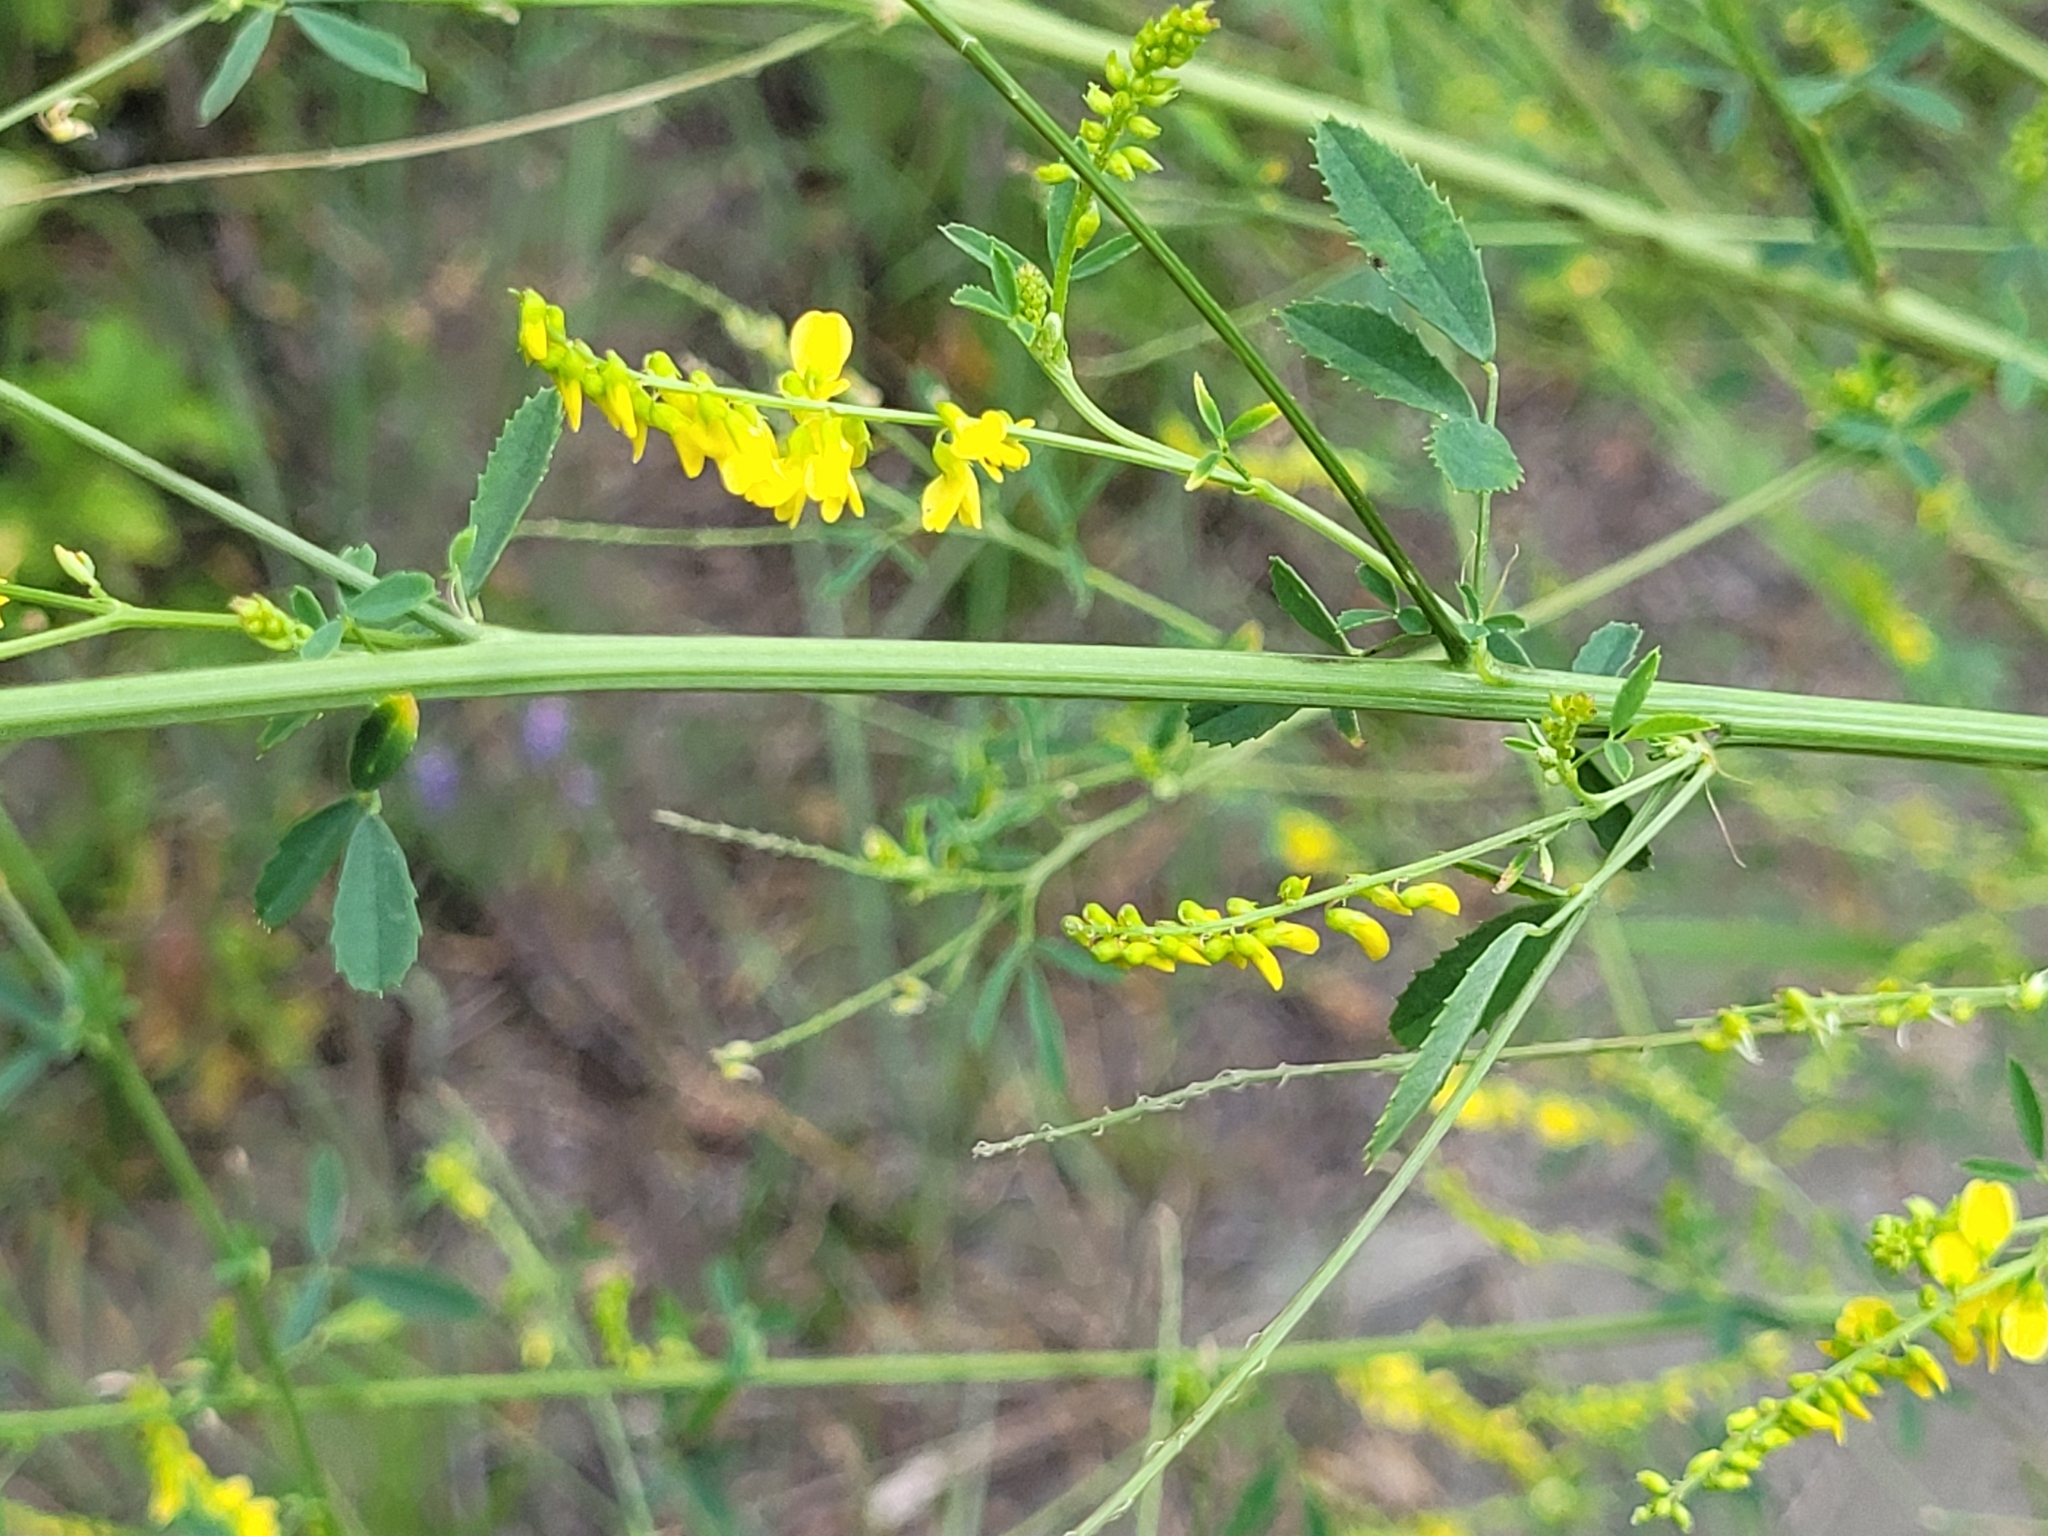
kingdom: Plantae
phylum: Tracheophyta
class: Magnoliopsida
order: Fabales
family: Fabaceae
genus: Melilotus
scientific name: Melilotus officinalis
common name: Sweetclover
